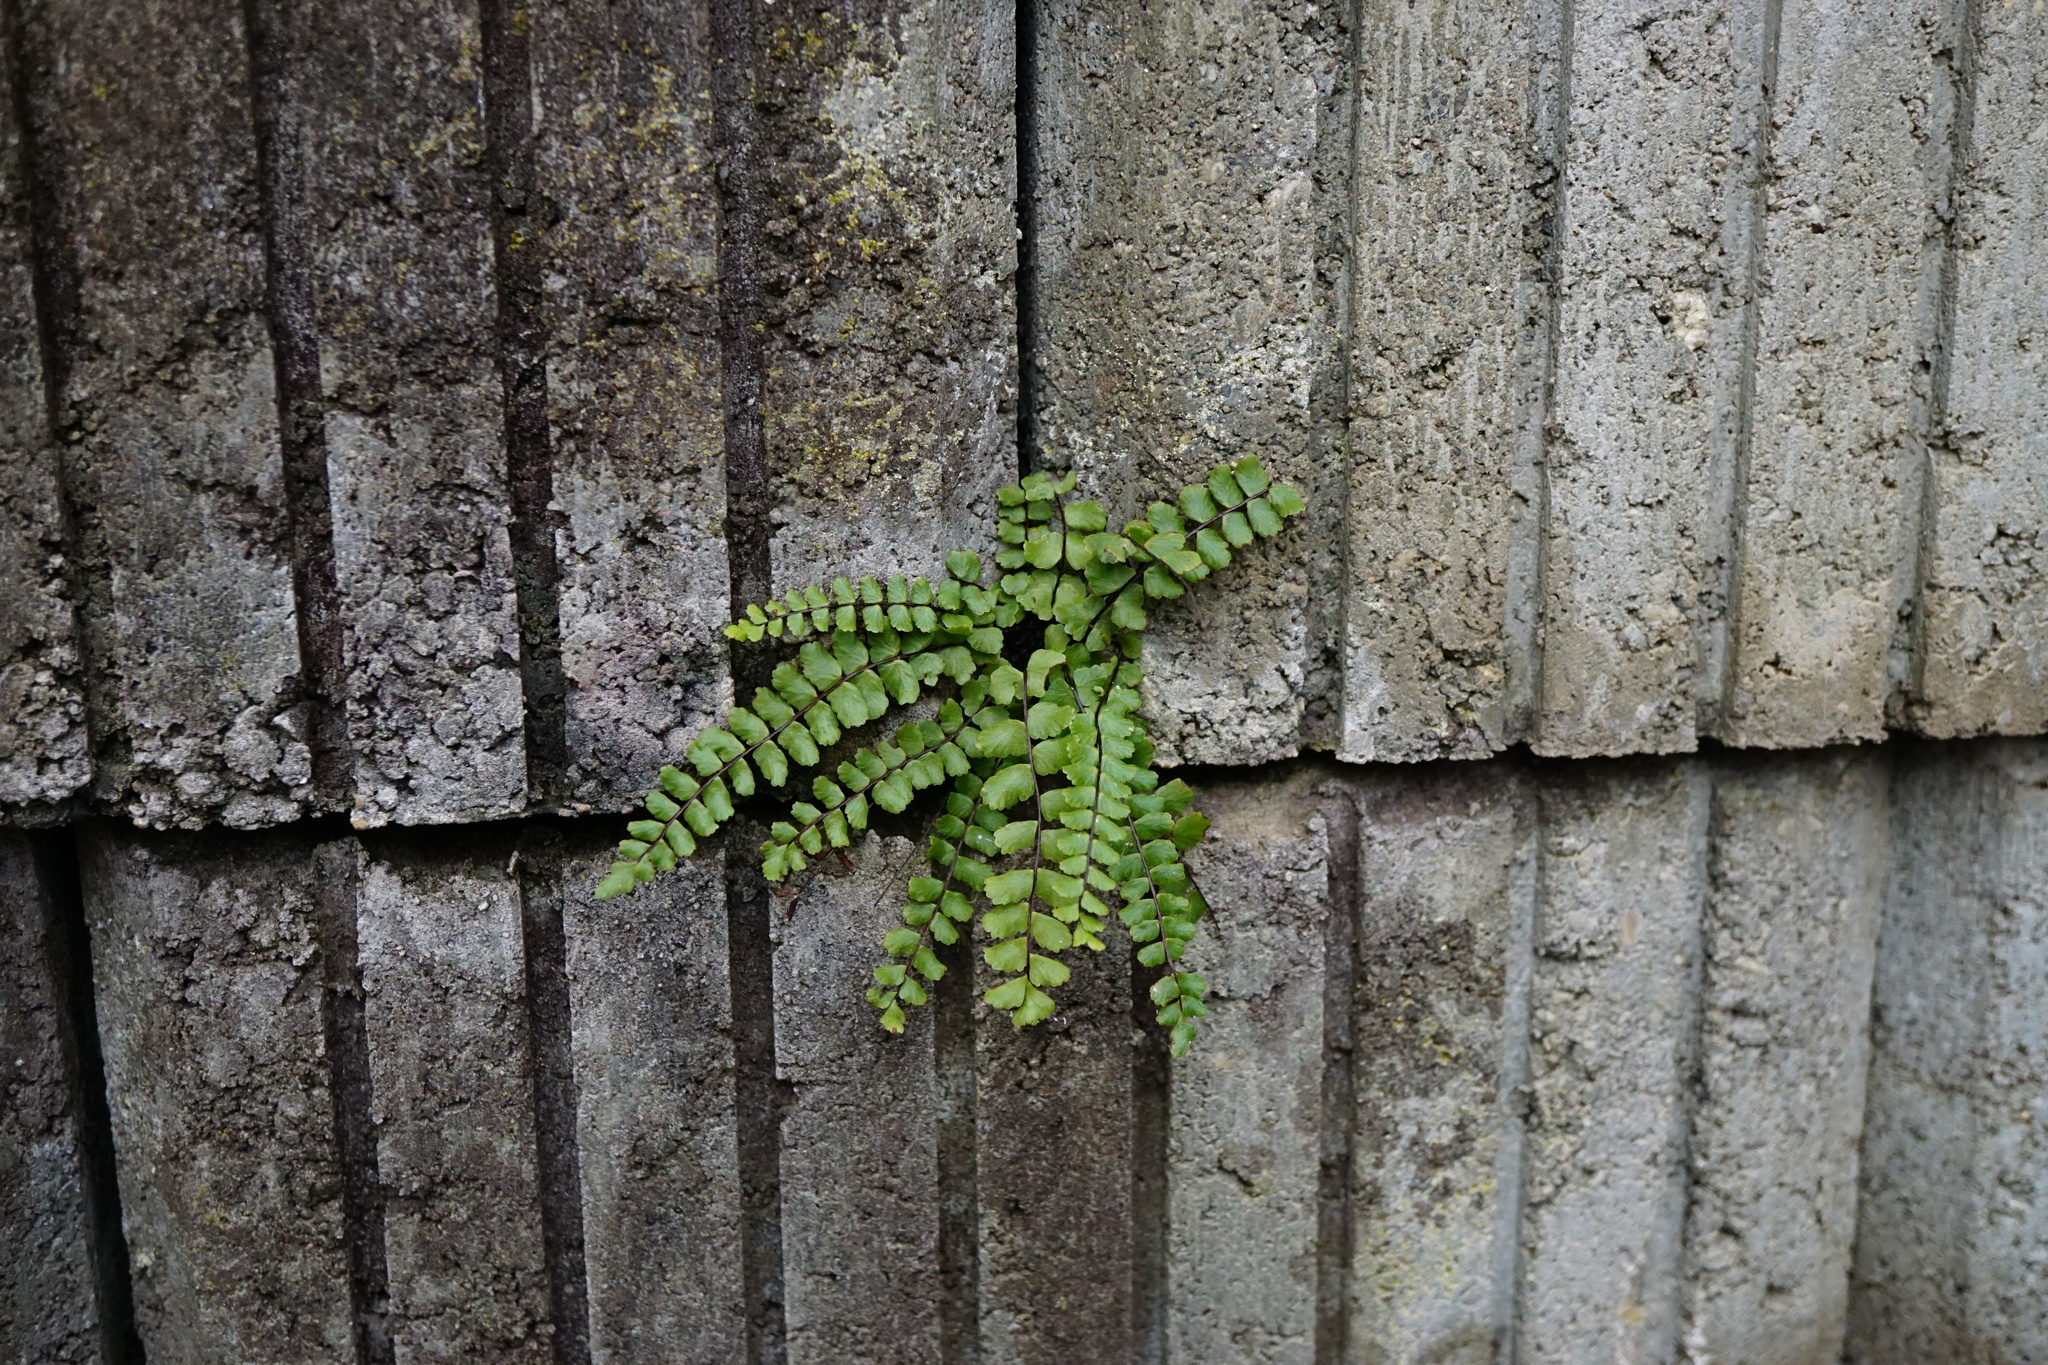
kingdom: Plantae
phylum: Tracheophyta
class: Polypodiopsida
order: Polypodiales
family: Aspleniaceae
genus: Asplenium
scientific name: Asplenium trichomanes
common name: Maidenhair spleenwort
